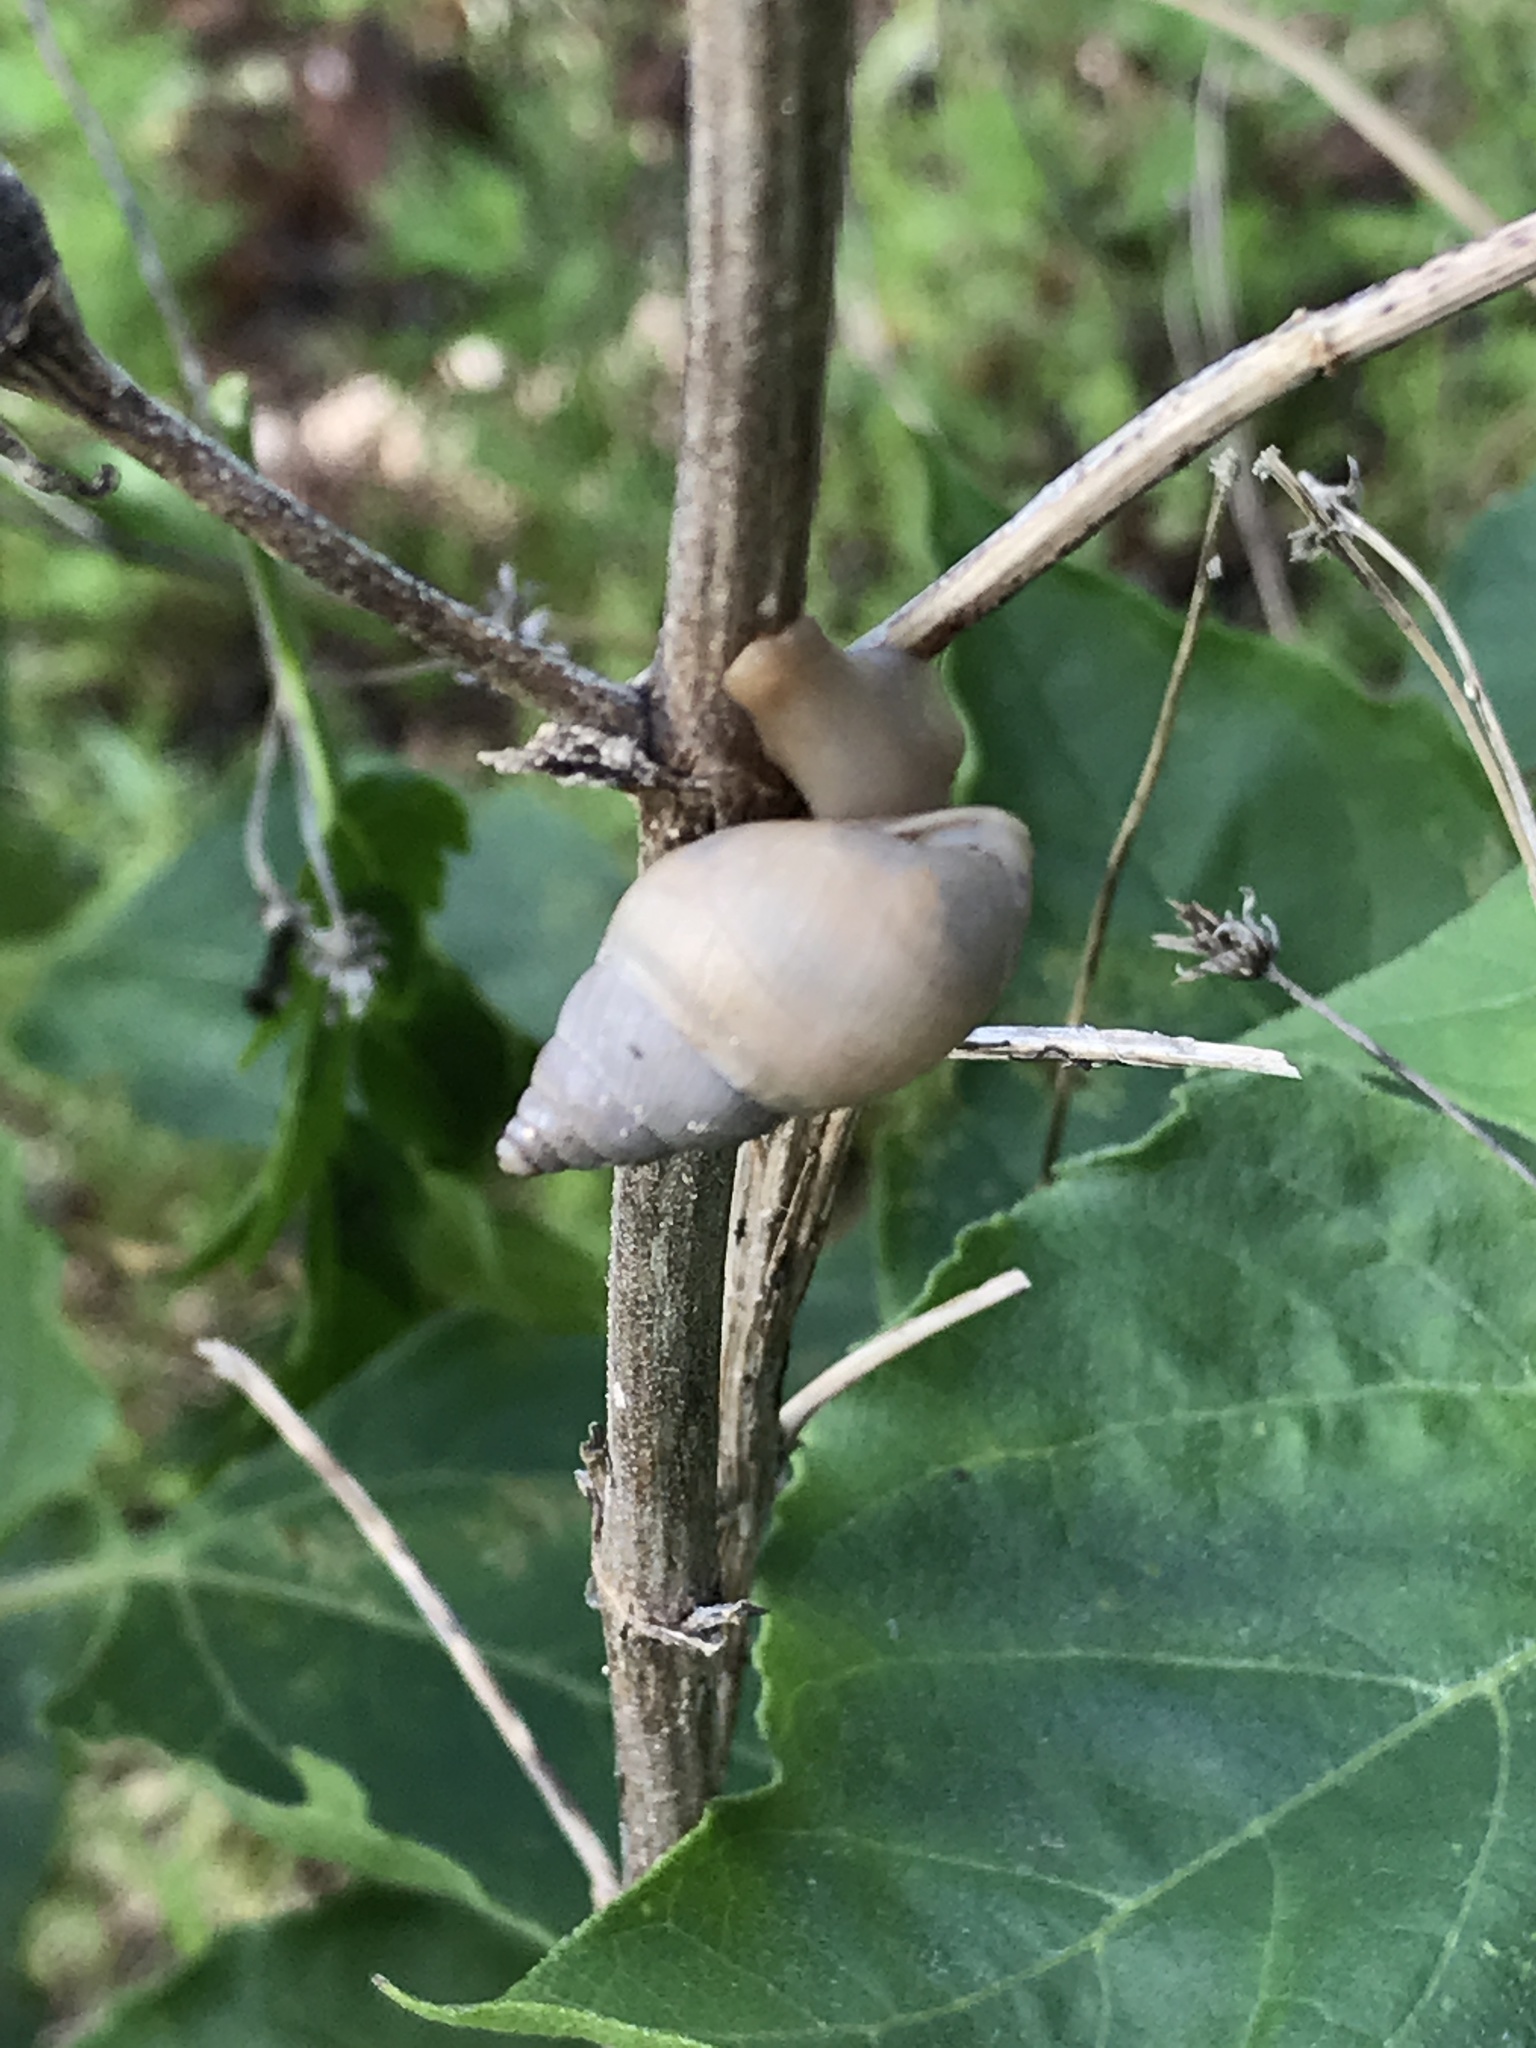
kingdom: Animalia
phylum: Mollusca
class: Gastropoda
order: Stylommatophora
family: Bulimulidae
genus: Rabdotus
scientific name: Rabdotus mooreanus
